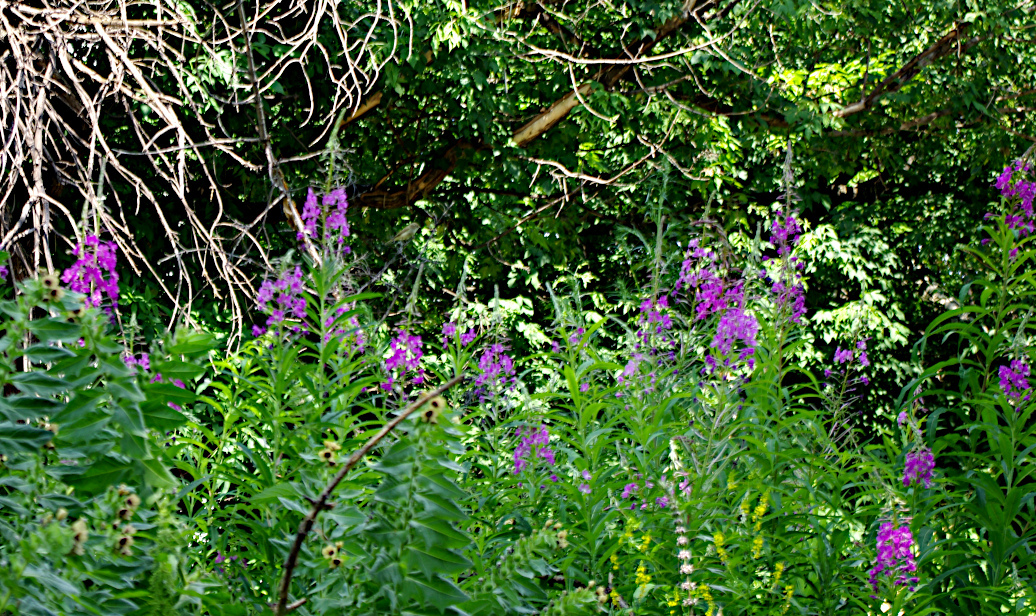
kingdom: Plantae
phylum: Tracheophyta
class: Magnoliopsida
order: Myrtales
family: Onagraceae
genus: Chamaenerion
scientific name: Chamaenerion angustifolium
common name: Fireweed
